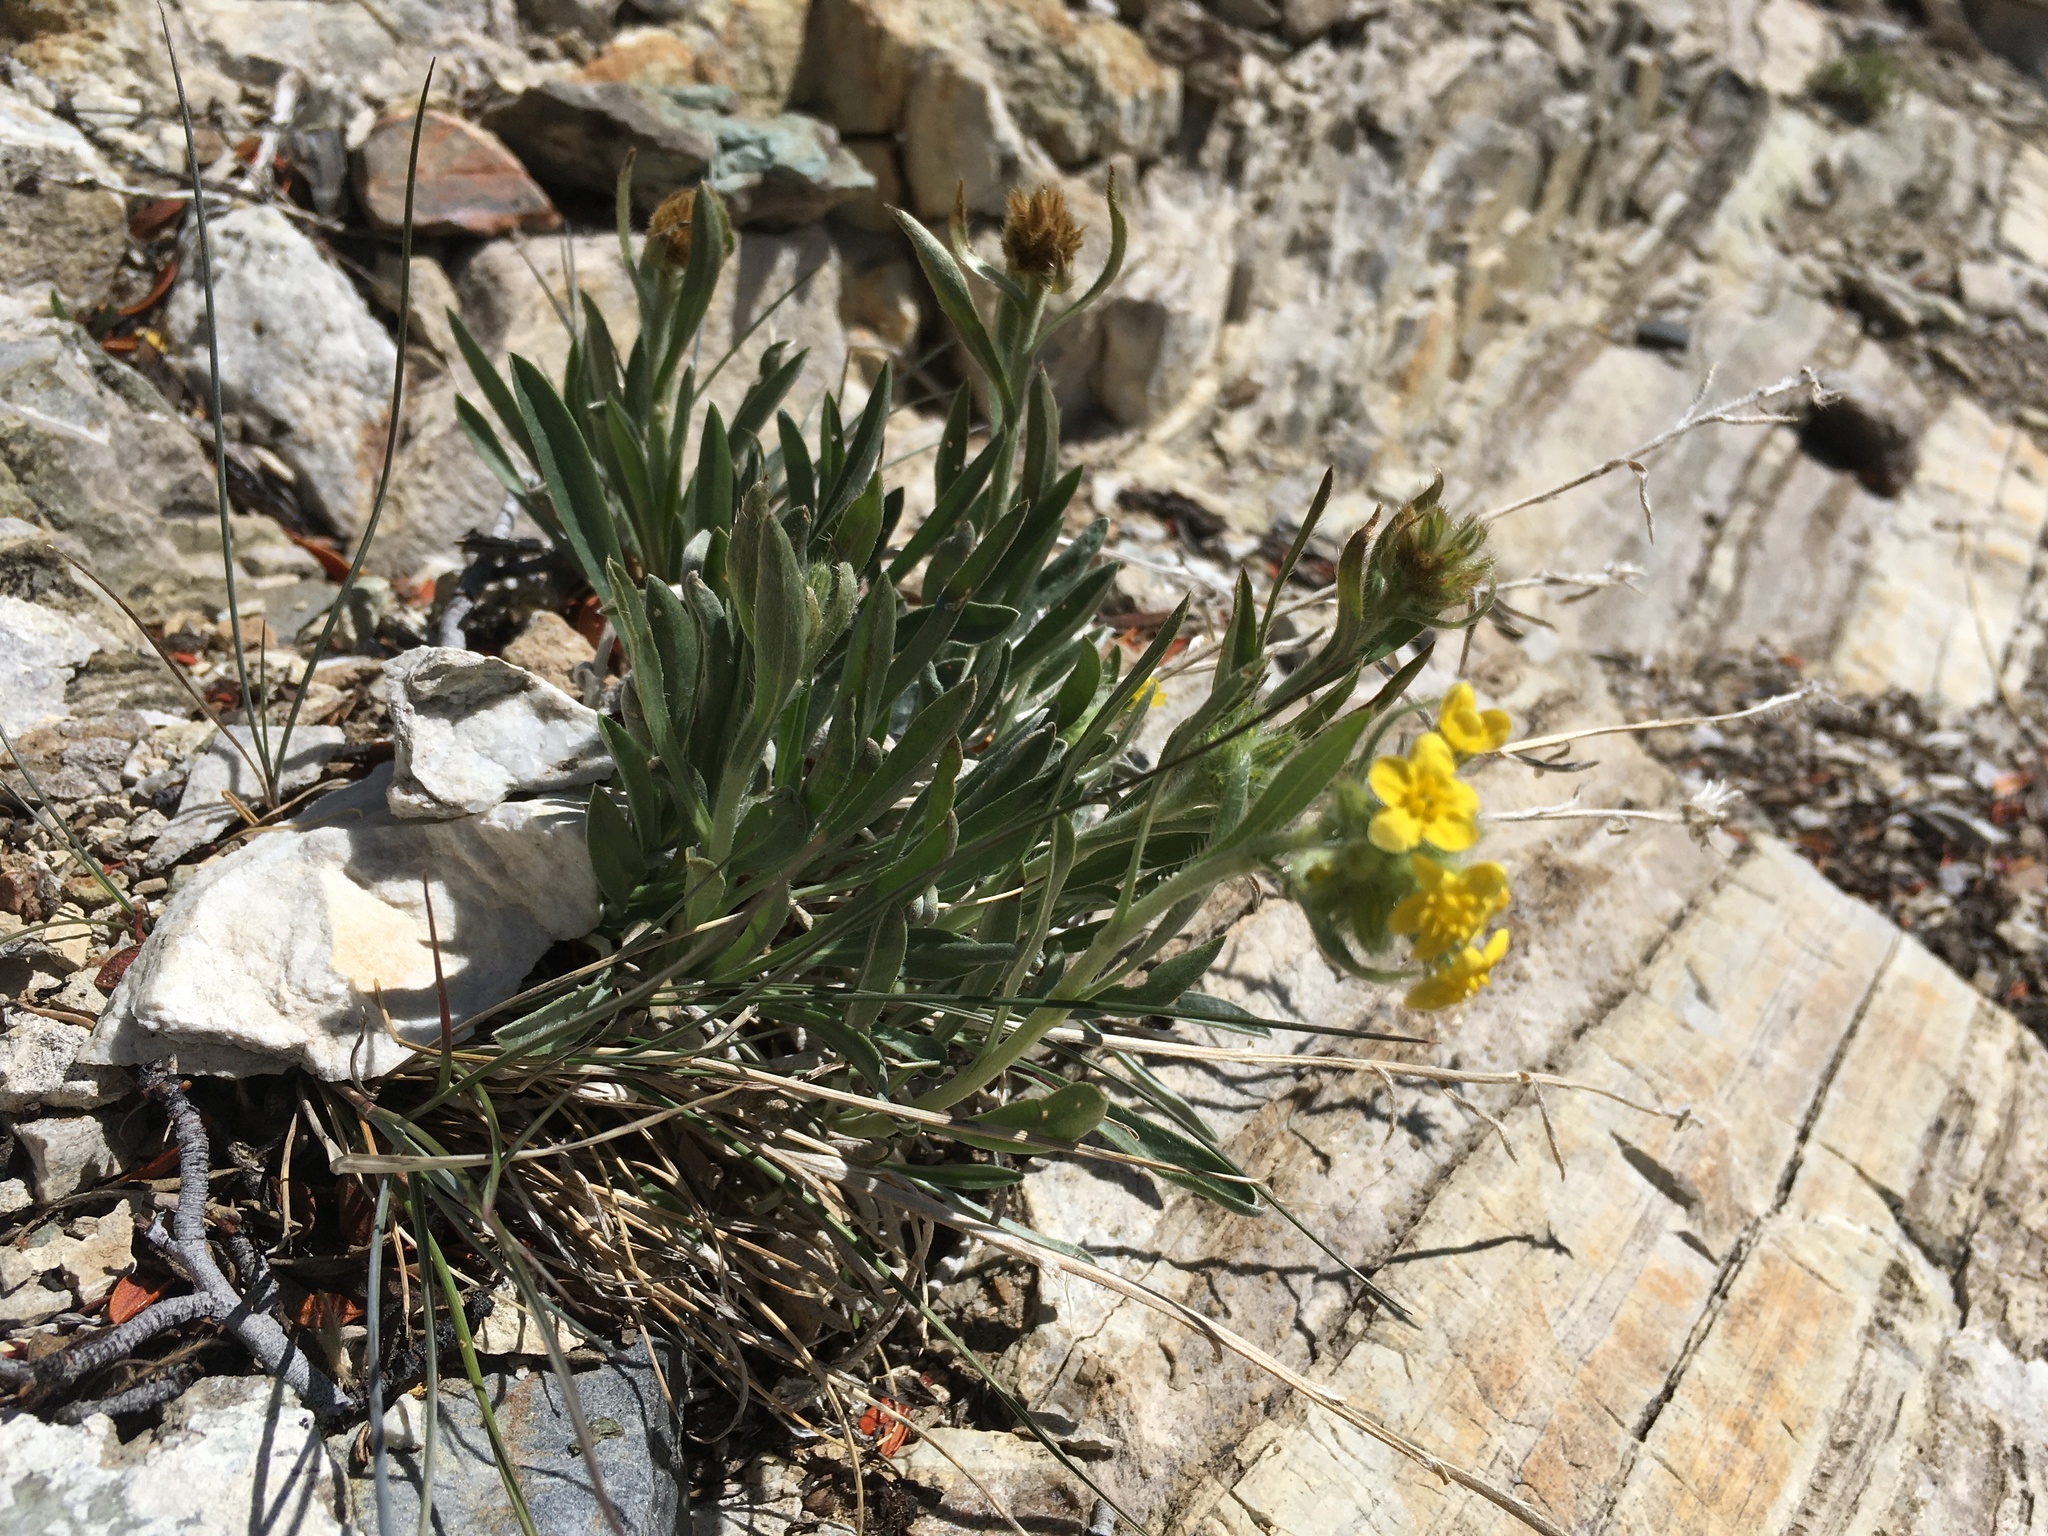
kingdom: Plantae
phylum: Tracheophyta
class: Magnoliopsida
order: Boraginales
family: Boraginaceae
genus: Oreocarya
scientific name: Oreocarya confertiflora
